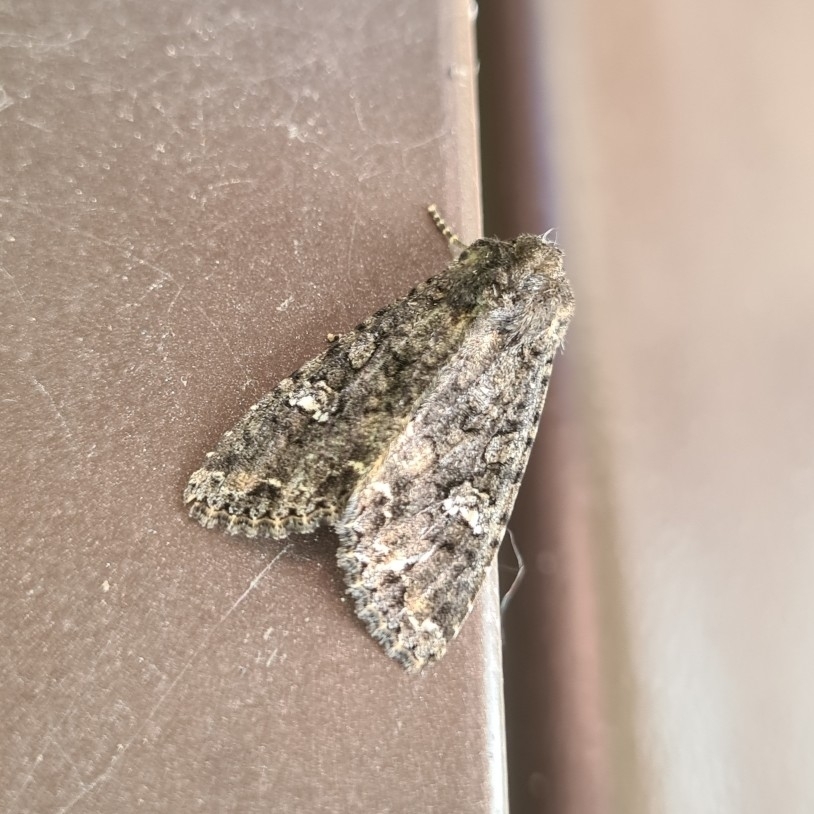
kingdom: Animalia
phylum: Arthropoda
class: Insecta
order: Lepidoptera
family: Noctuidae
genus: Mamestra
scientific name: Mamestra brassicae
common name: Cabbage moth
